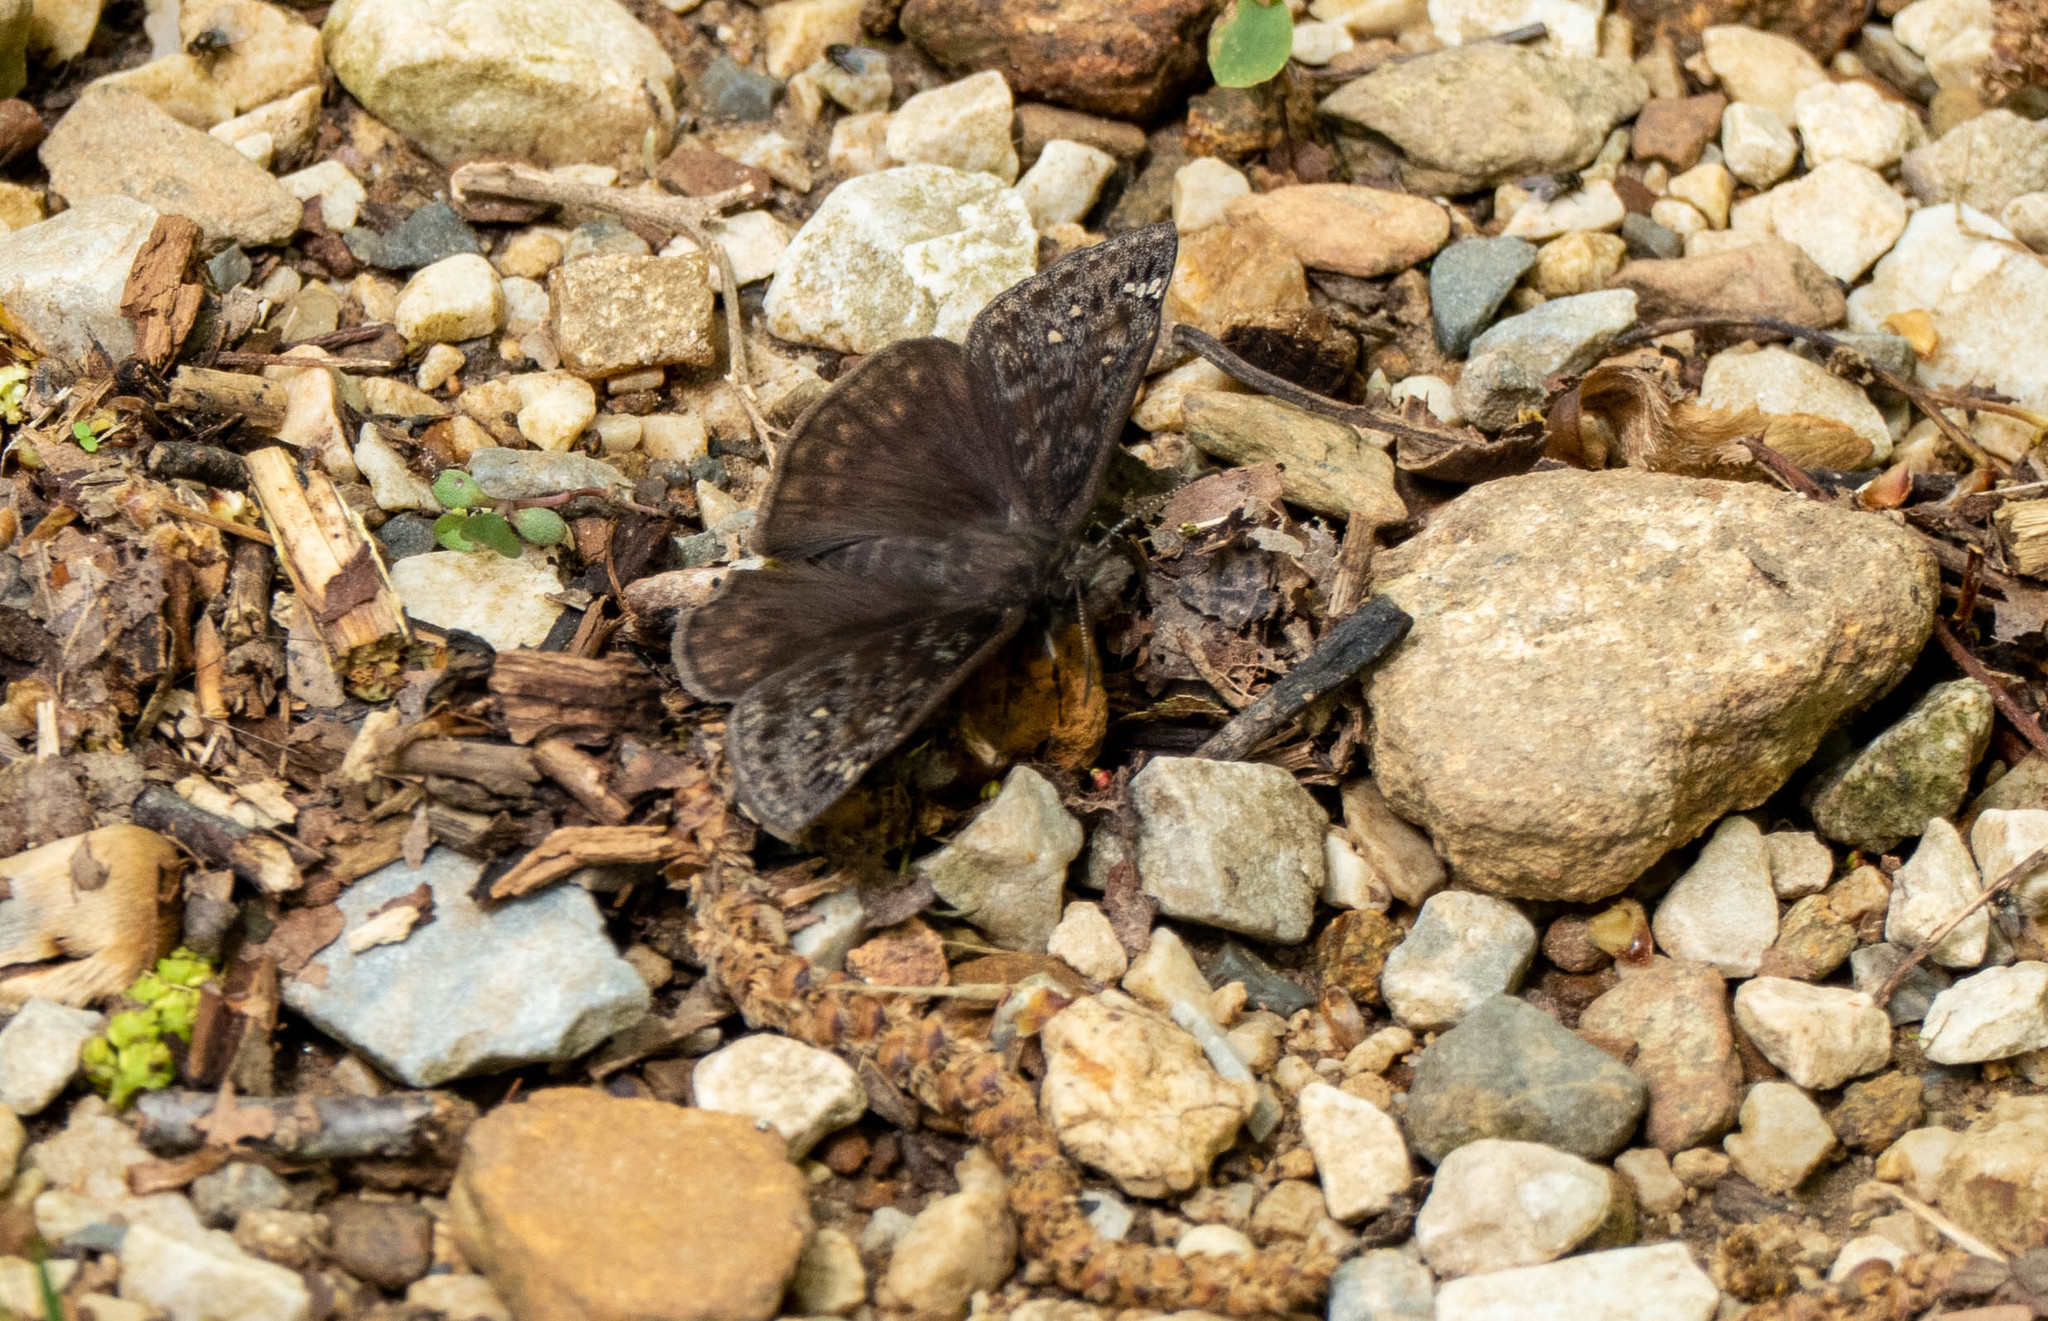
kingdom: Animalia
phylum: Arthropoda
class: Insecta
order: Lepidoptera
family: Hesperiidae
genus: Erynnis
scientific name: Erynnis horatius
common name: Horace's duskywing
